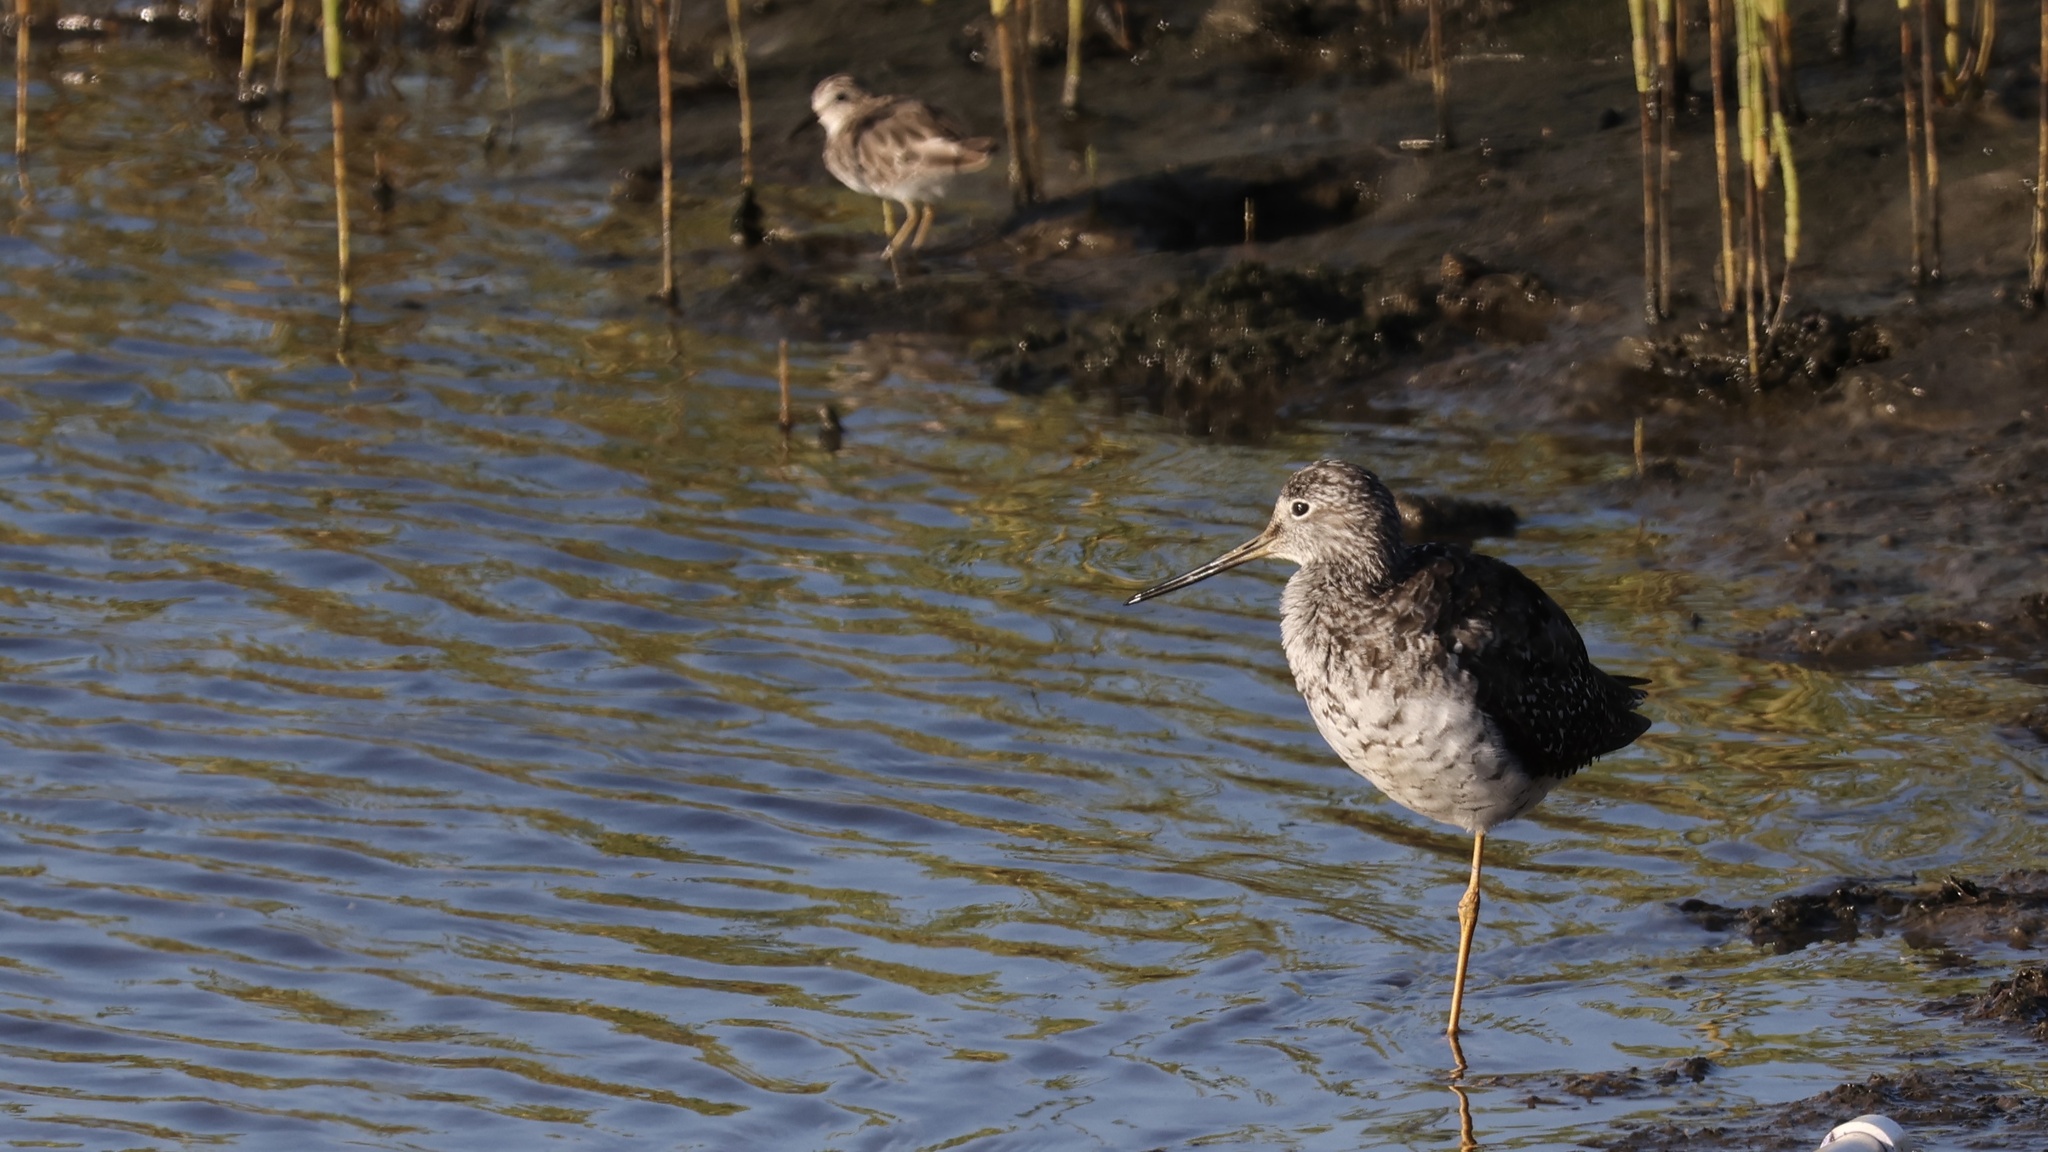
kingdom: Animalia
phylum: Chordata
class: Aves
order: Charadriiformes
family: Scolopacidae
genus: Tringa
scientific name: Tringa melanoleuca
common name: Greater yellowlegs
